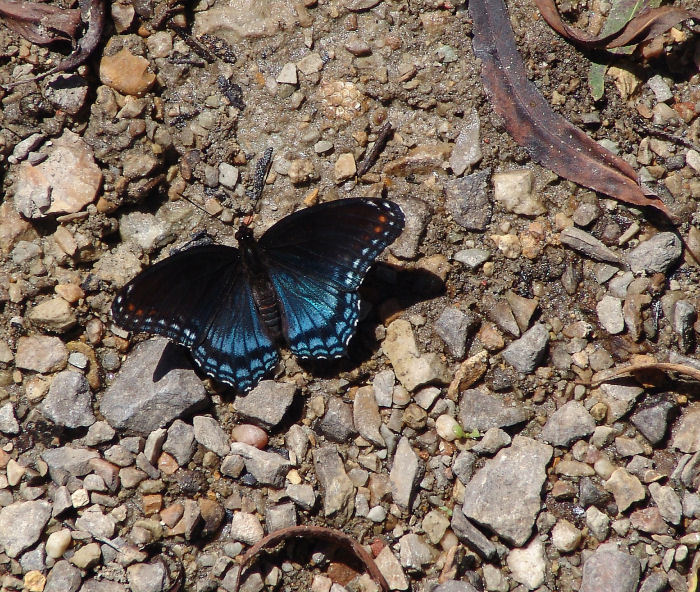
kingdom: Animalia
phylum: Arthropoda
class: Insecta
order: Lepidoptera
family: Nymphalidae
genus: Limenitis
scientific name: Limenitis astyanax
